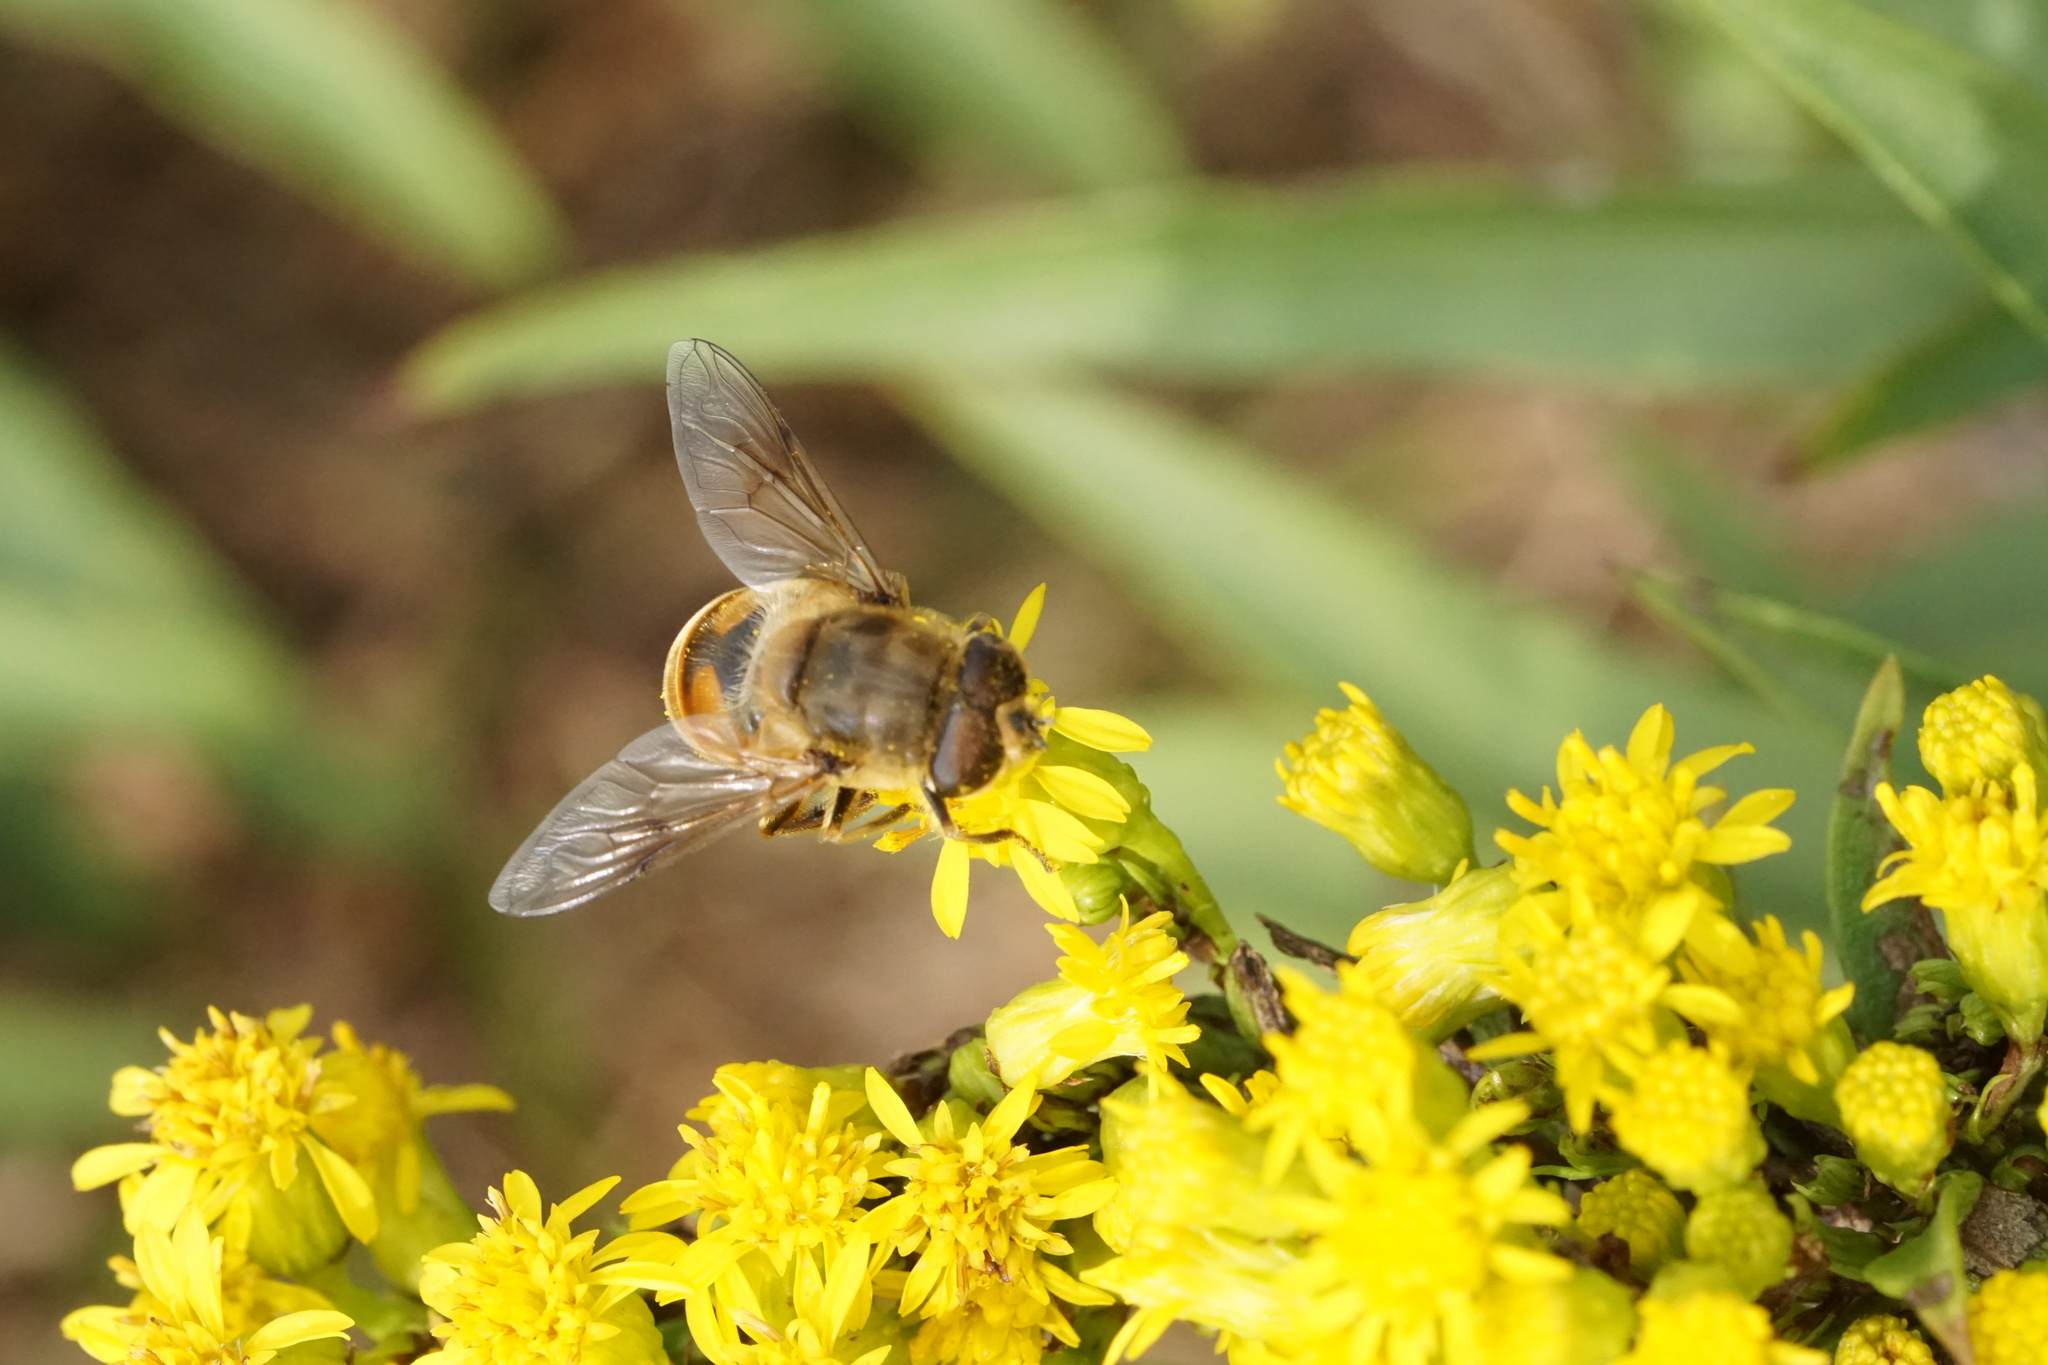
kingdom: Animalia
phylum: Arthropoda
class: Insecta
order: Diptera
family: Syrphidae
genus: Eristalis
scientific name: Eristalis tenax
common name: Drone fly
